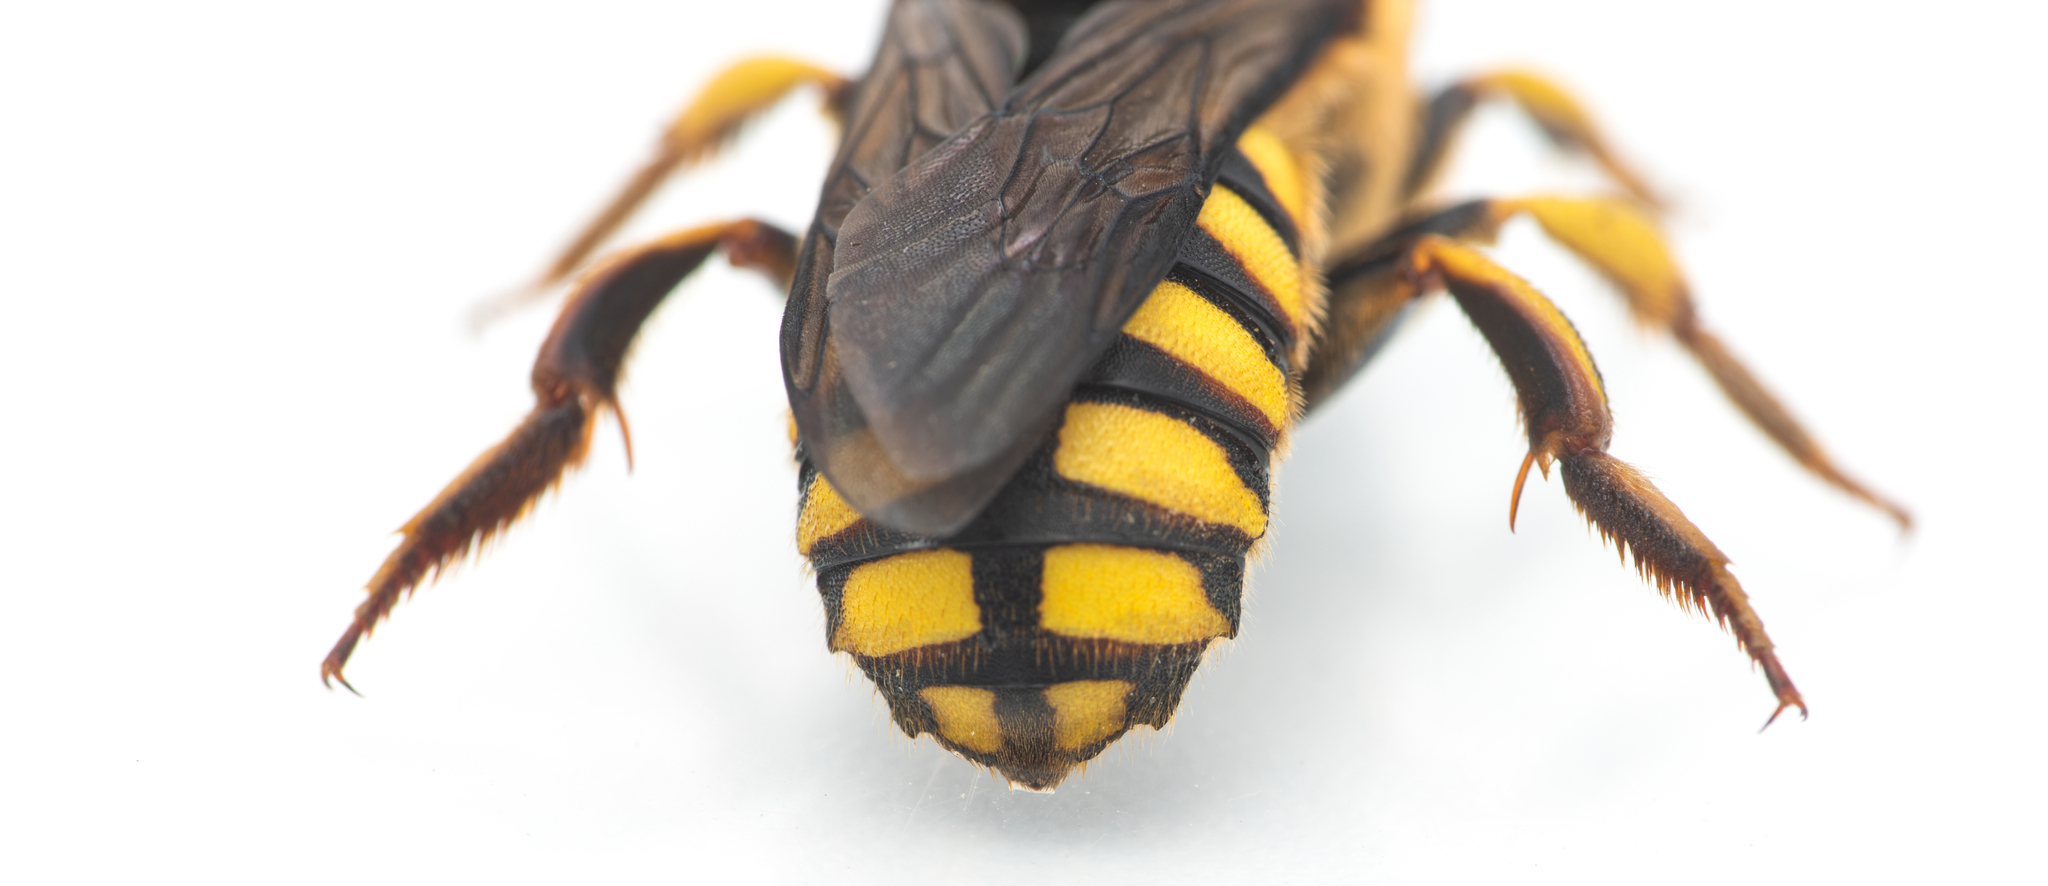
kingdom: Animalia
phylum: Arthropoda
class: Insecta
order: Hymenoptera
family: Megachilidae
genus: Anthidium
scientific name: Anthidium florentinum
